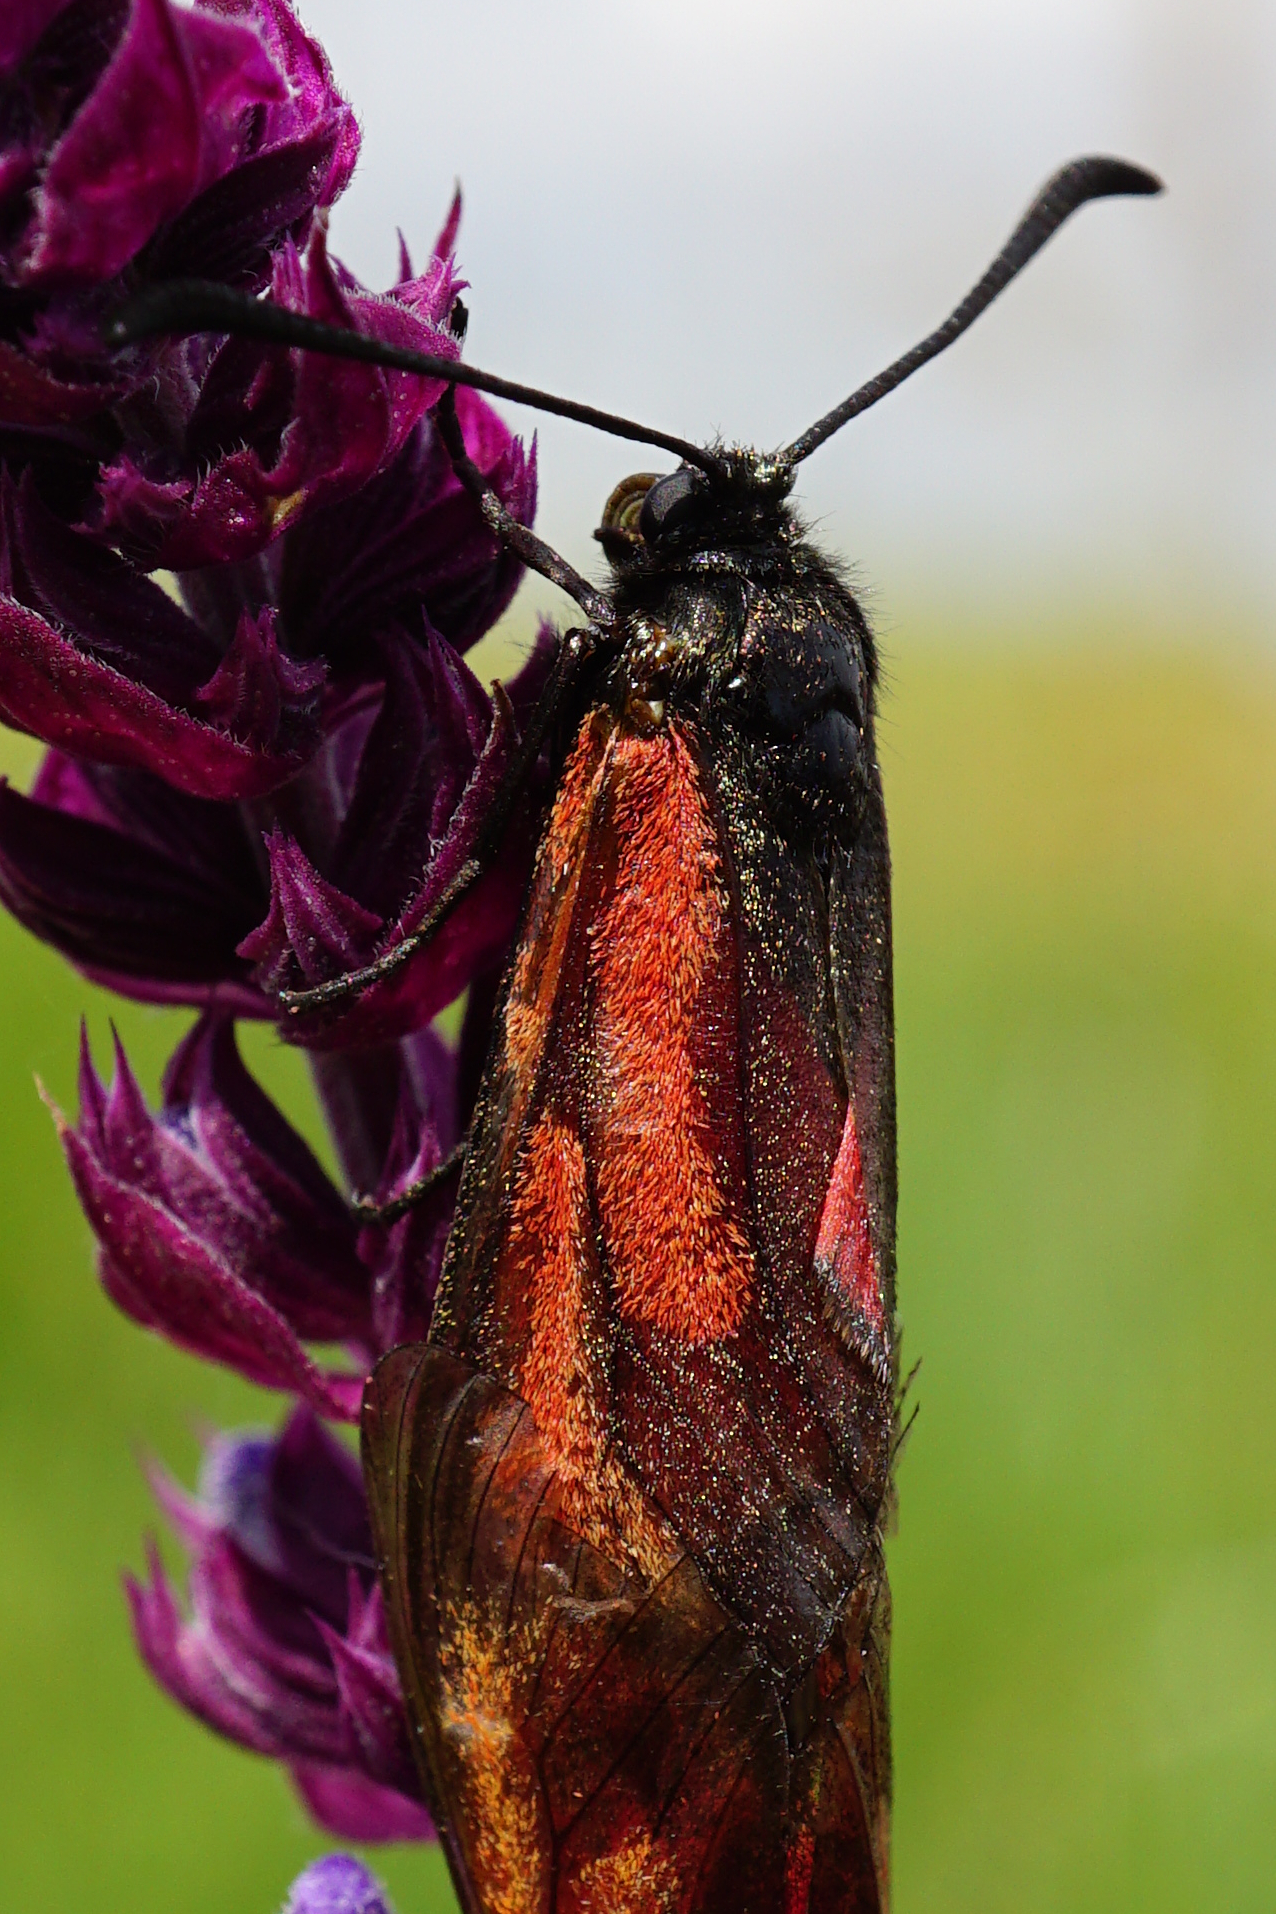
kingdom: Animalia
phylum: Arthropoda
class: Insecta
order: Lepidoptera
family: Zygaenidae
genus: Zygaena
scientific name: Zygaena
